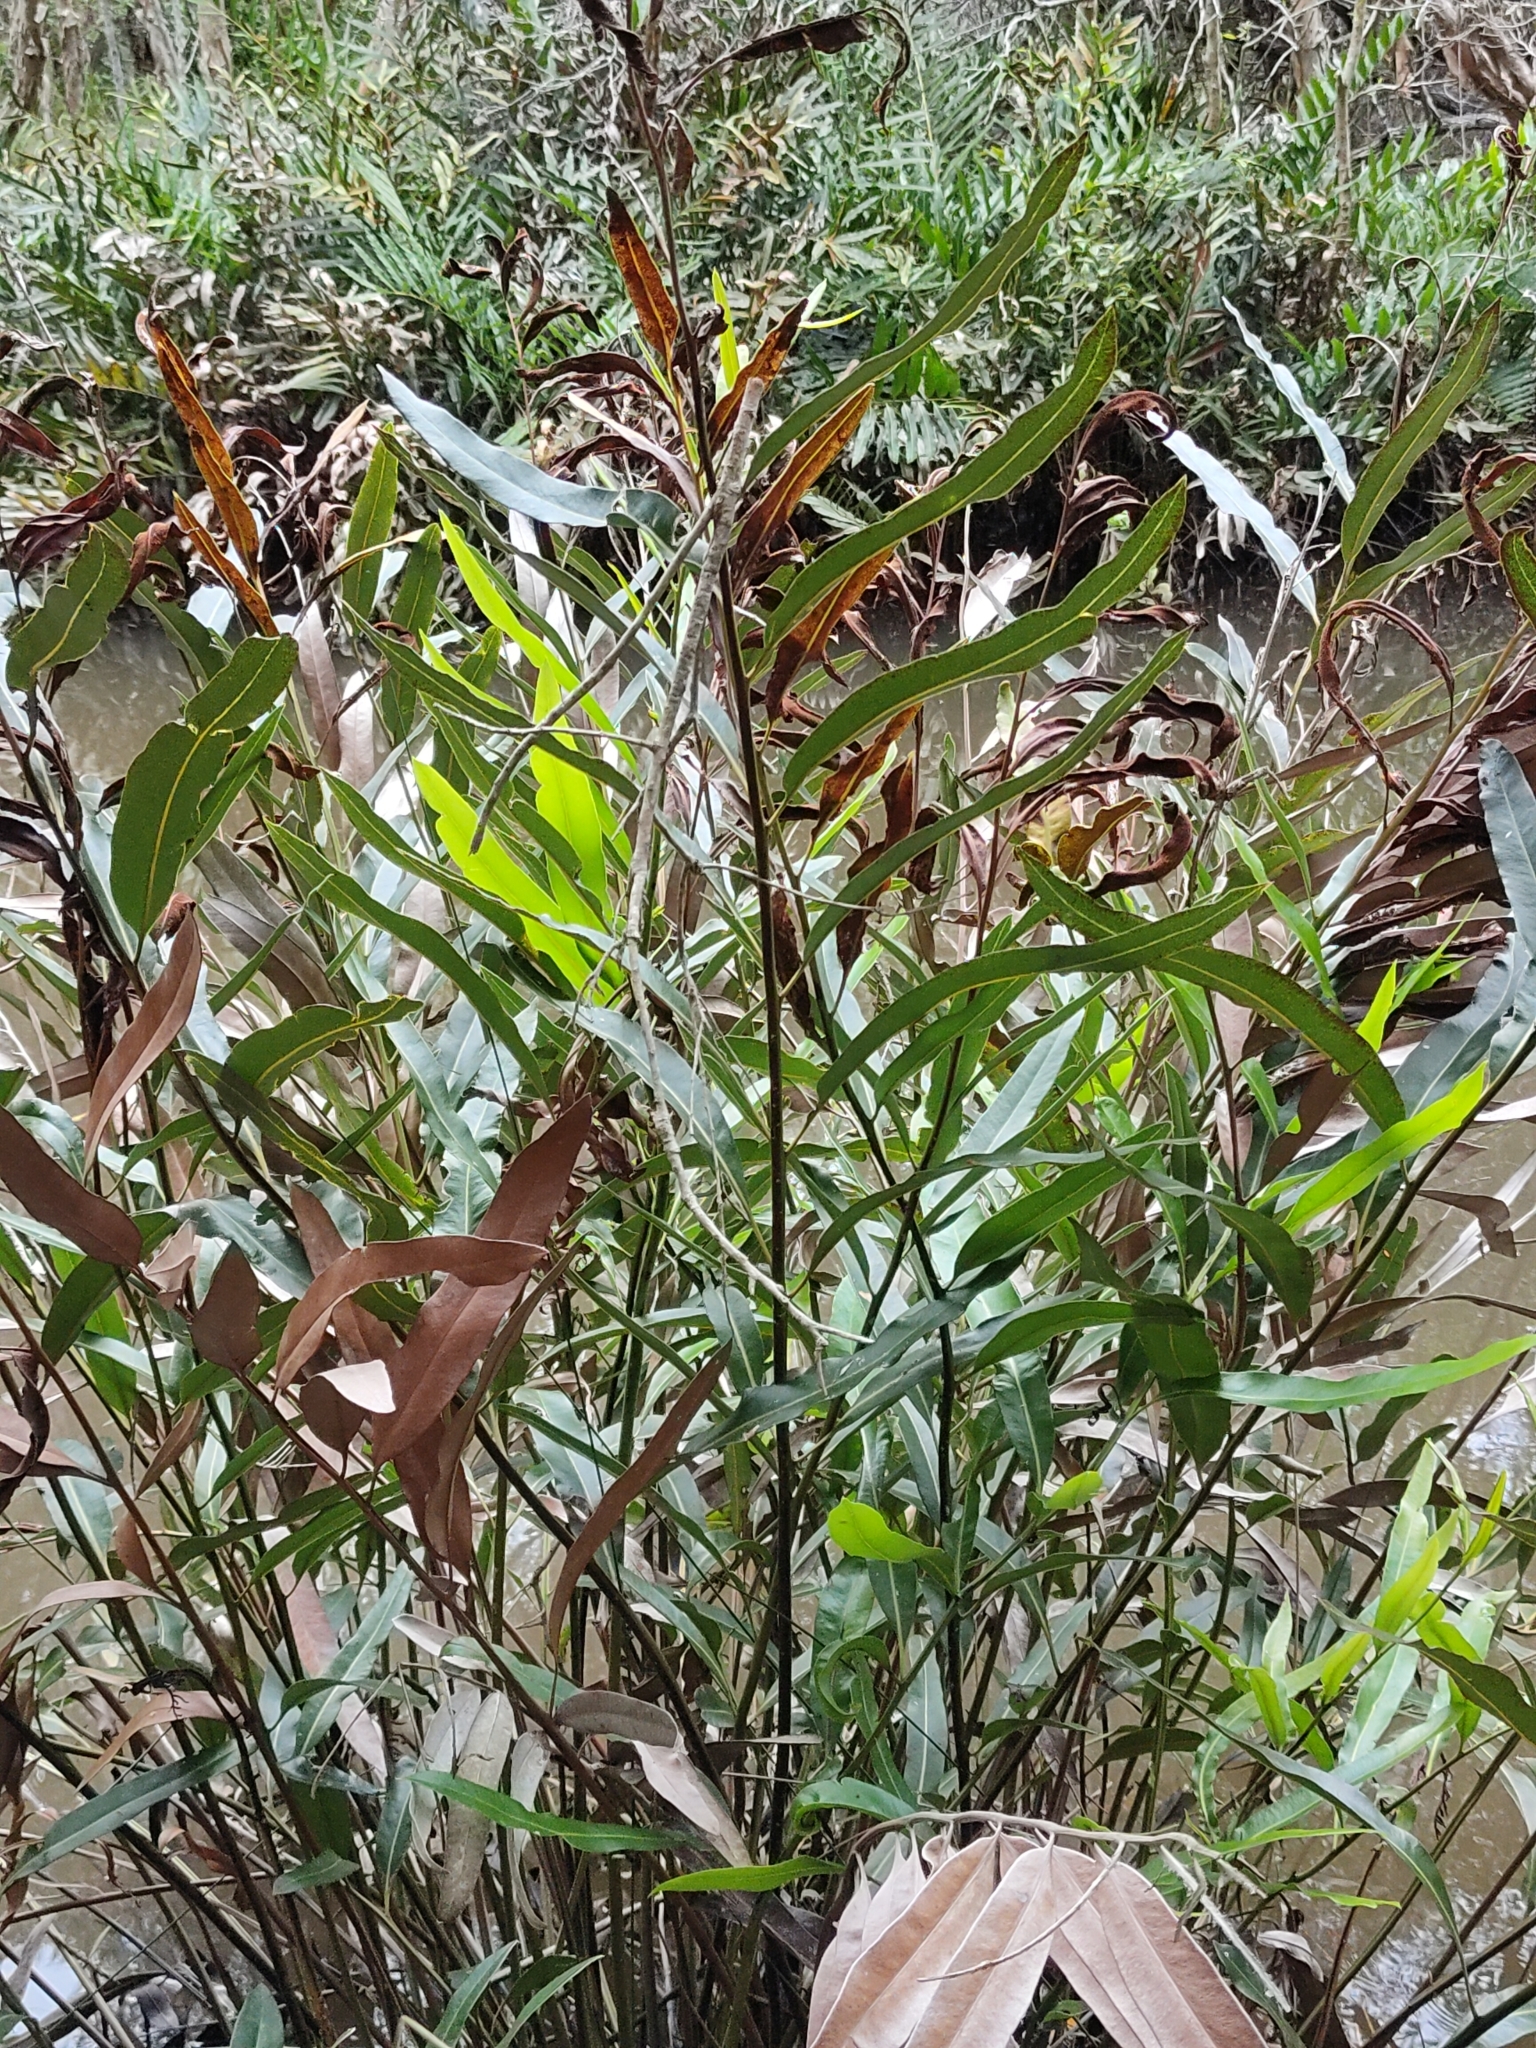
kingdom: Plantae
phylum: Tracheophyta
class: Polypodiopsida
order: Polypodiales
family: Pteridaceae
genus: Acrostichum
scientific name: Acrostichum speciosum
